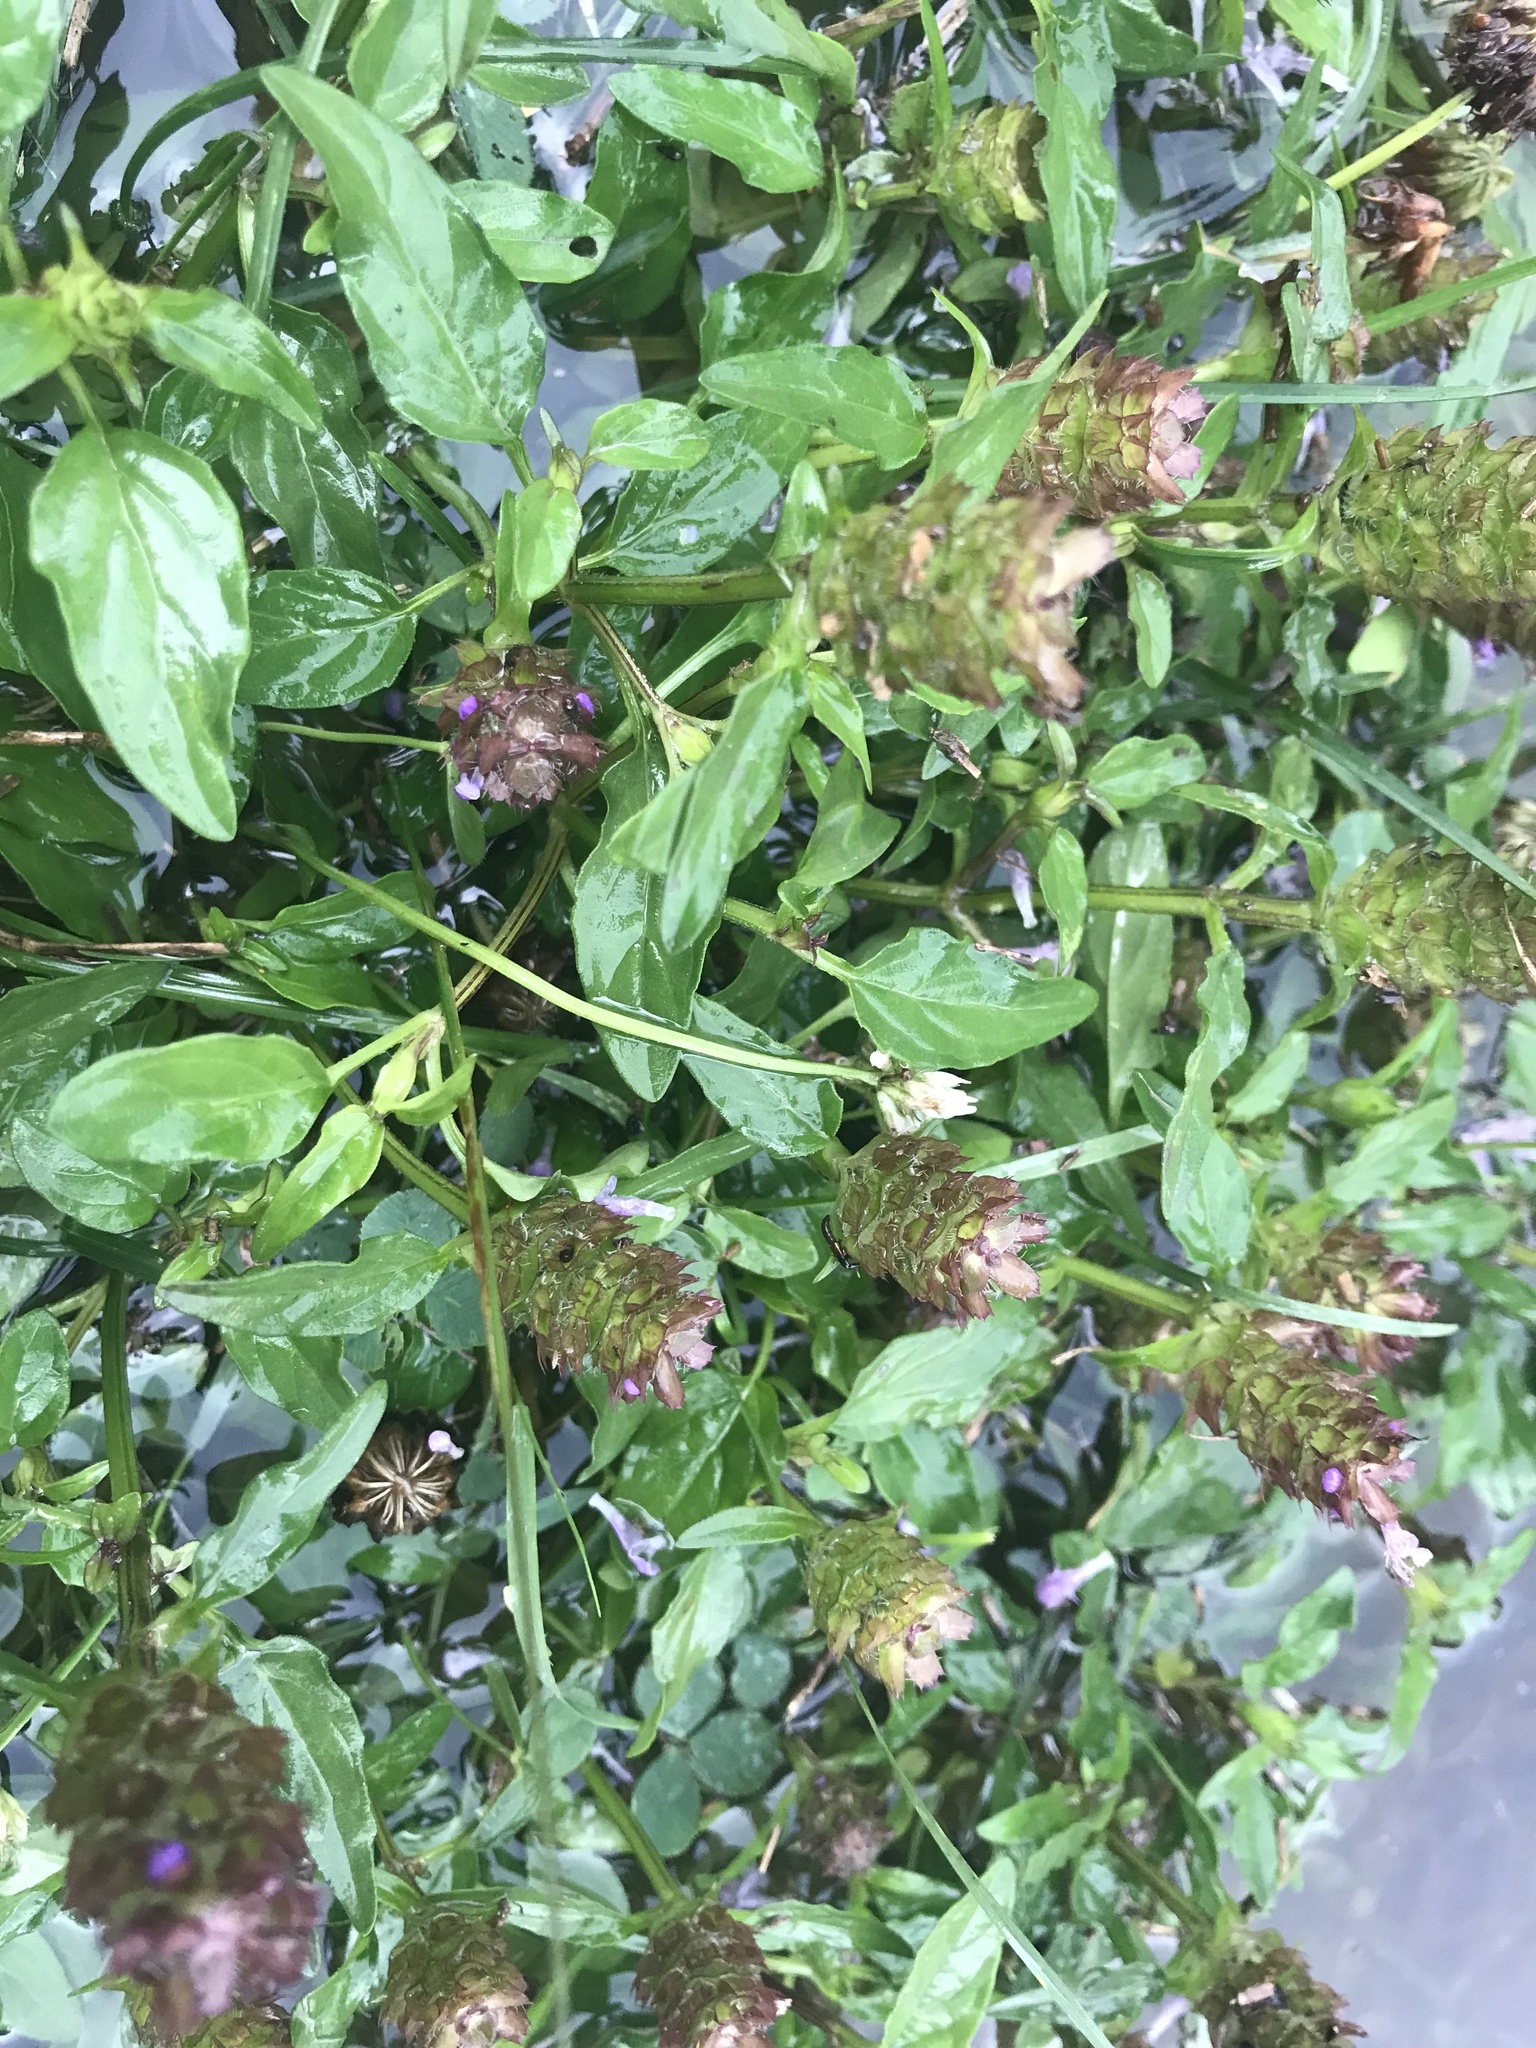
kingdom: Plantae
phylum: Tracheophyta
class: Magnoliopsida
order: Lamiales
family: Lamiaceae
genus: Prunella
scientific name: Prunella vulgaris
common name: Heal-all
